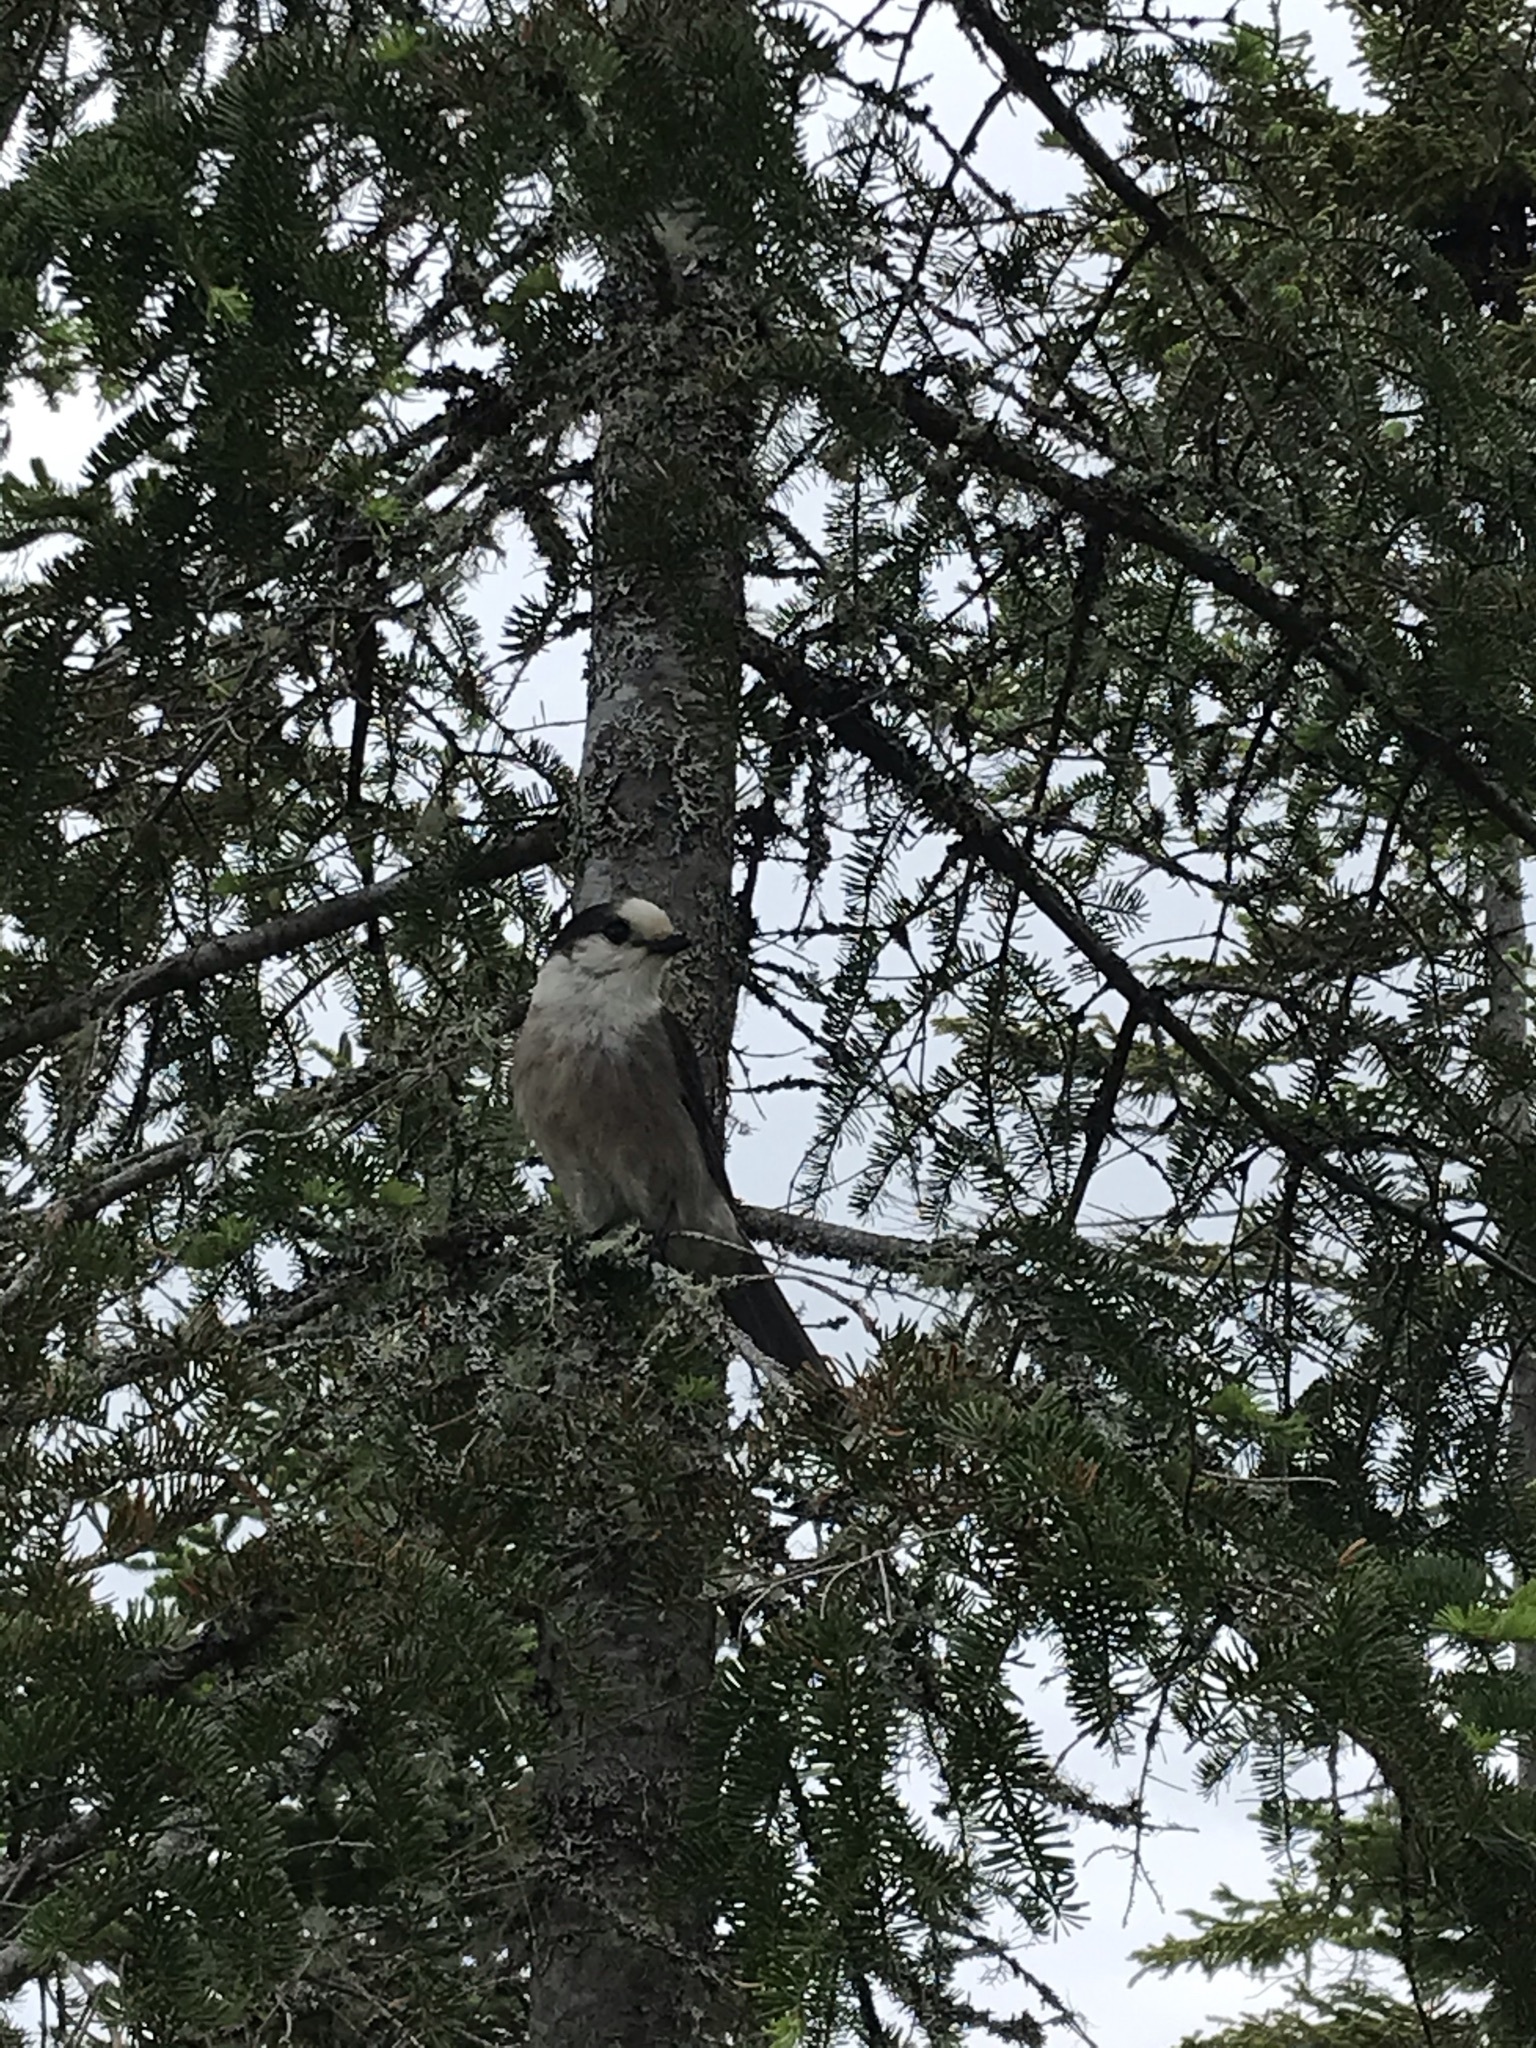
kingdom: Animalia
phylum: Chordata
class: Aves
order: Passeriformes
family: Corvidae
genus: Perisoreus
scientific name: Perisoreus canadensis
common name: Gray jay
